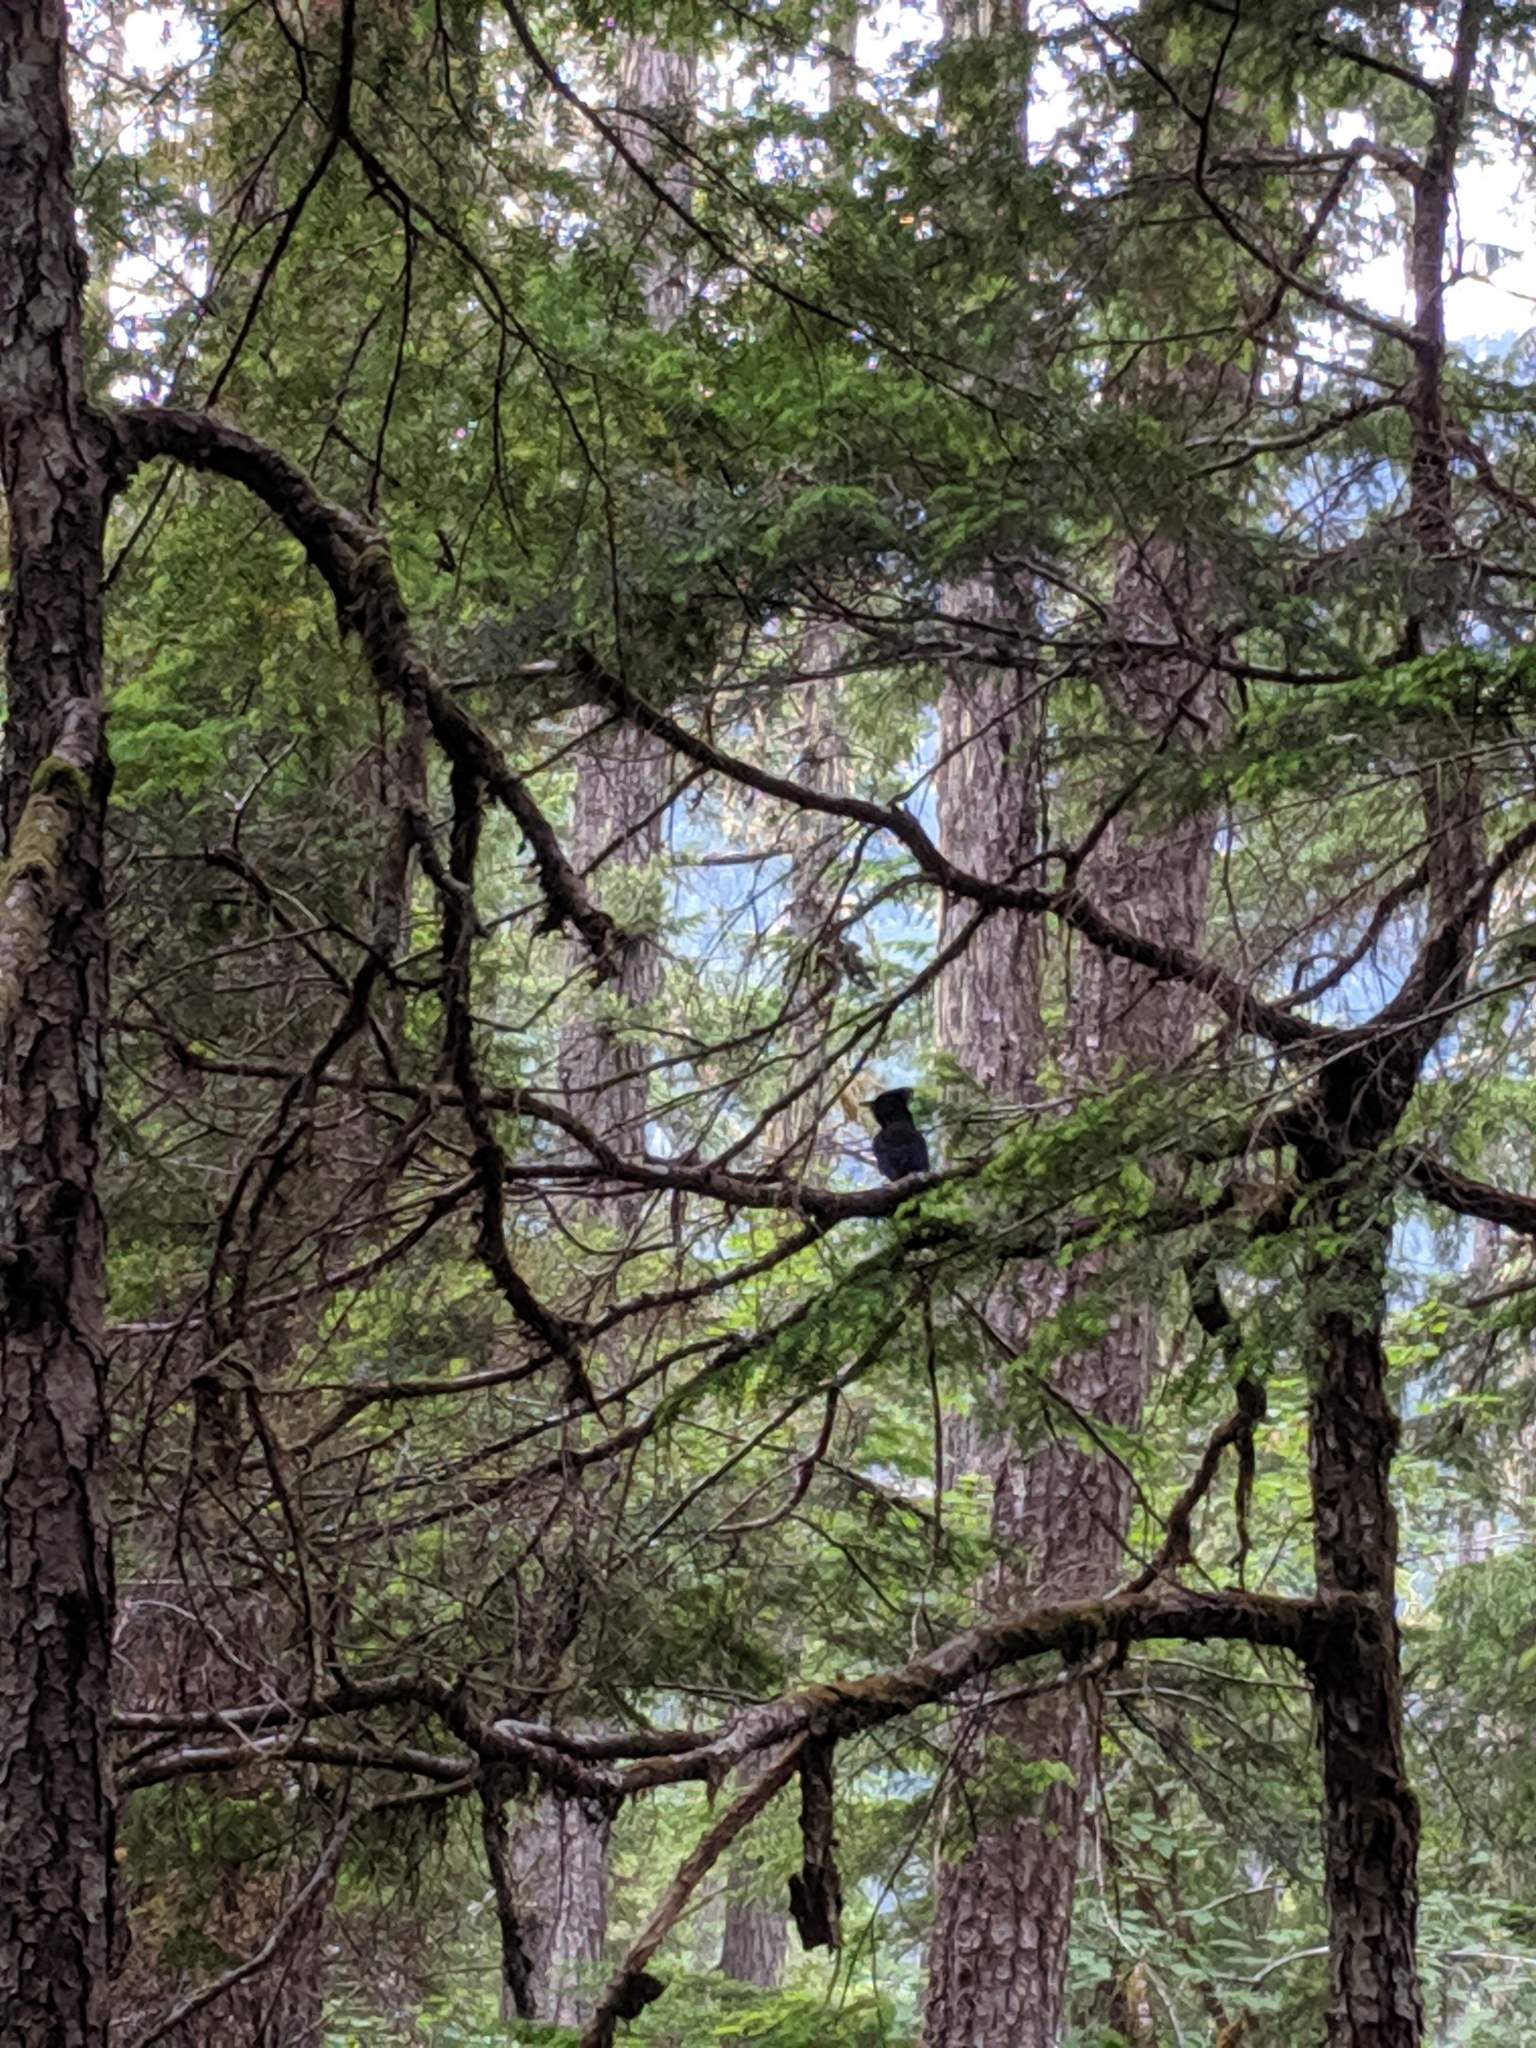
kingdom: Animalia
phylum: Chordata
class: Aves
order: Passeriformes
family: Corvidae
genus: Cyanocitta
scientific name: Cyanocitta stelleri
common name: Steller's jay
